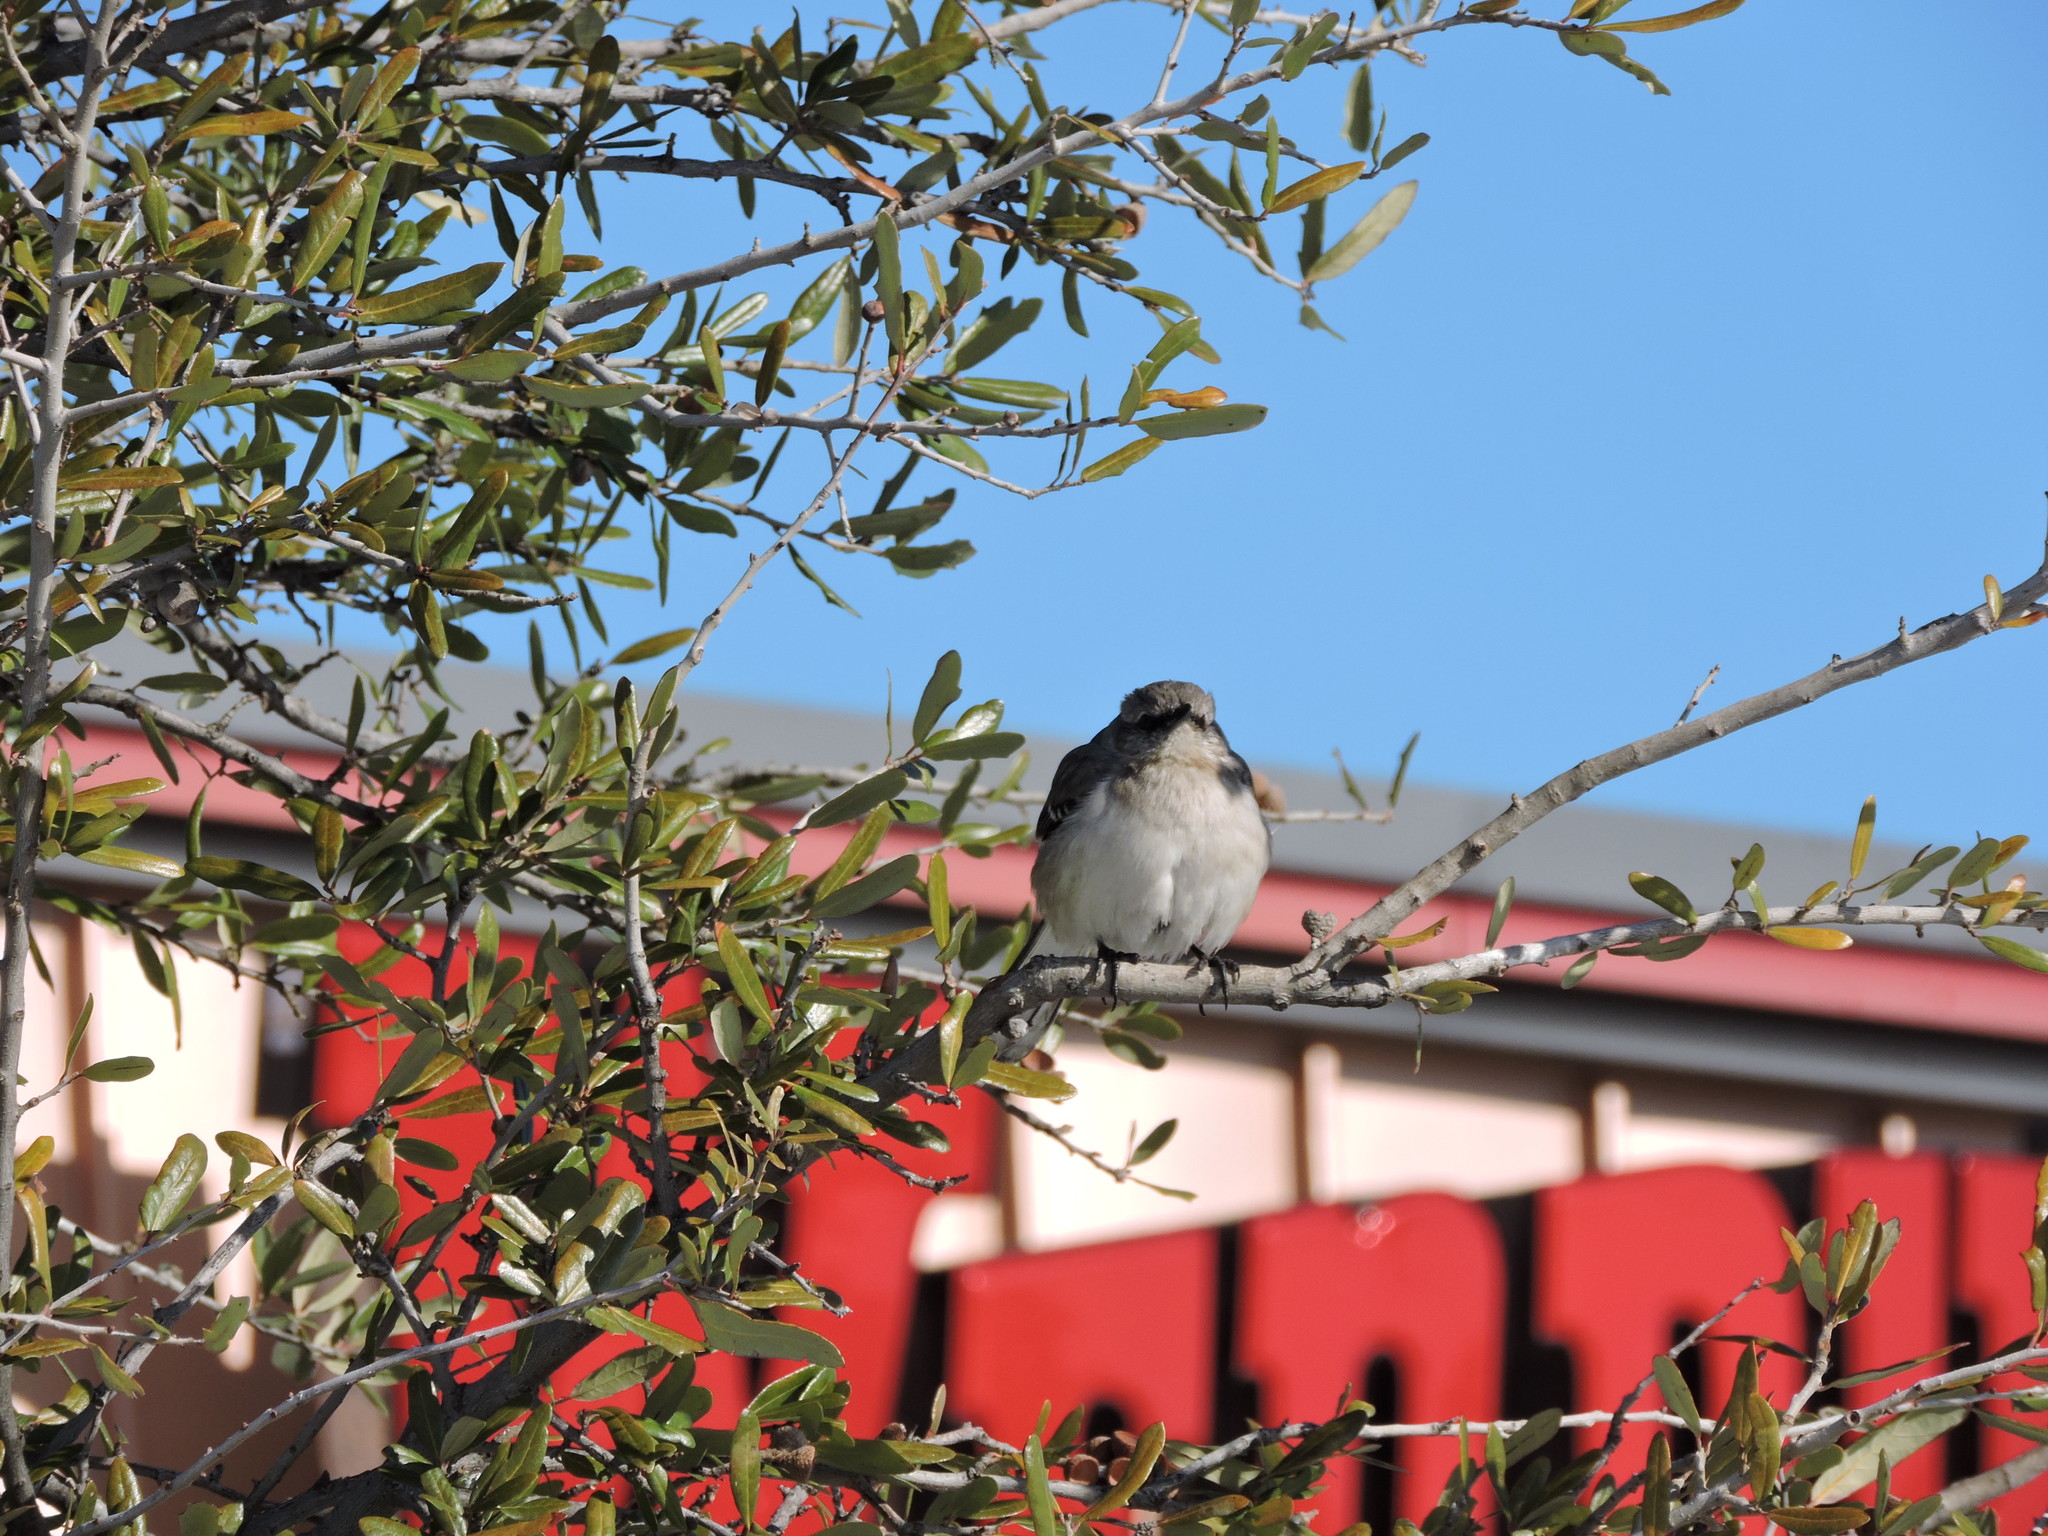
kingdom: Animalia
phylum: Chordata
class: Aves
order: Passeriformes
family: Mimidae
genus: Mimus
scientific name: Mimus polyglottos
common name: Northern mockingbird
